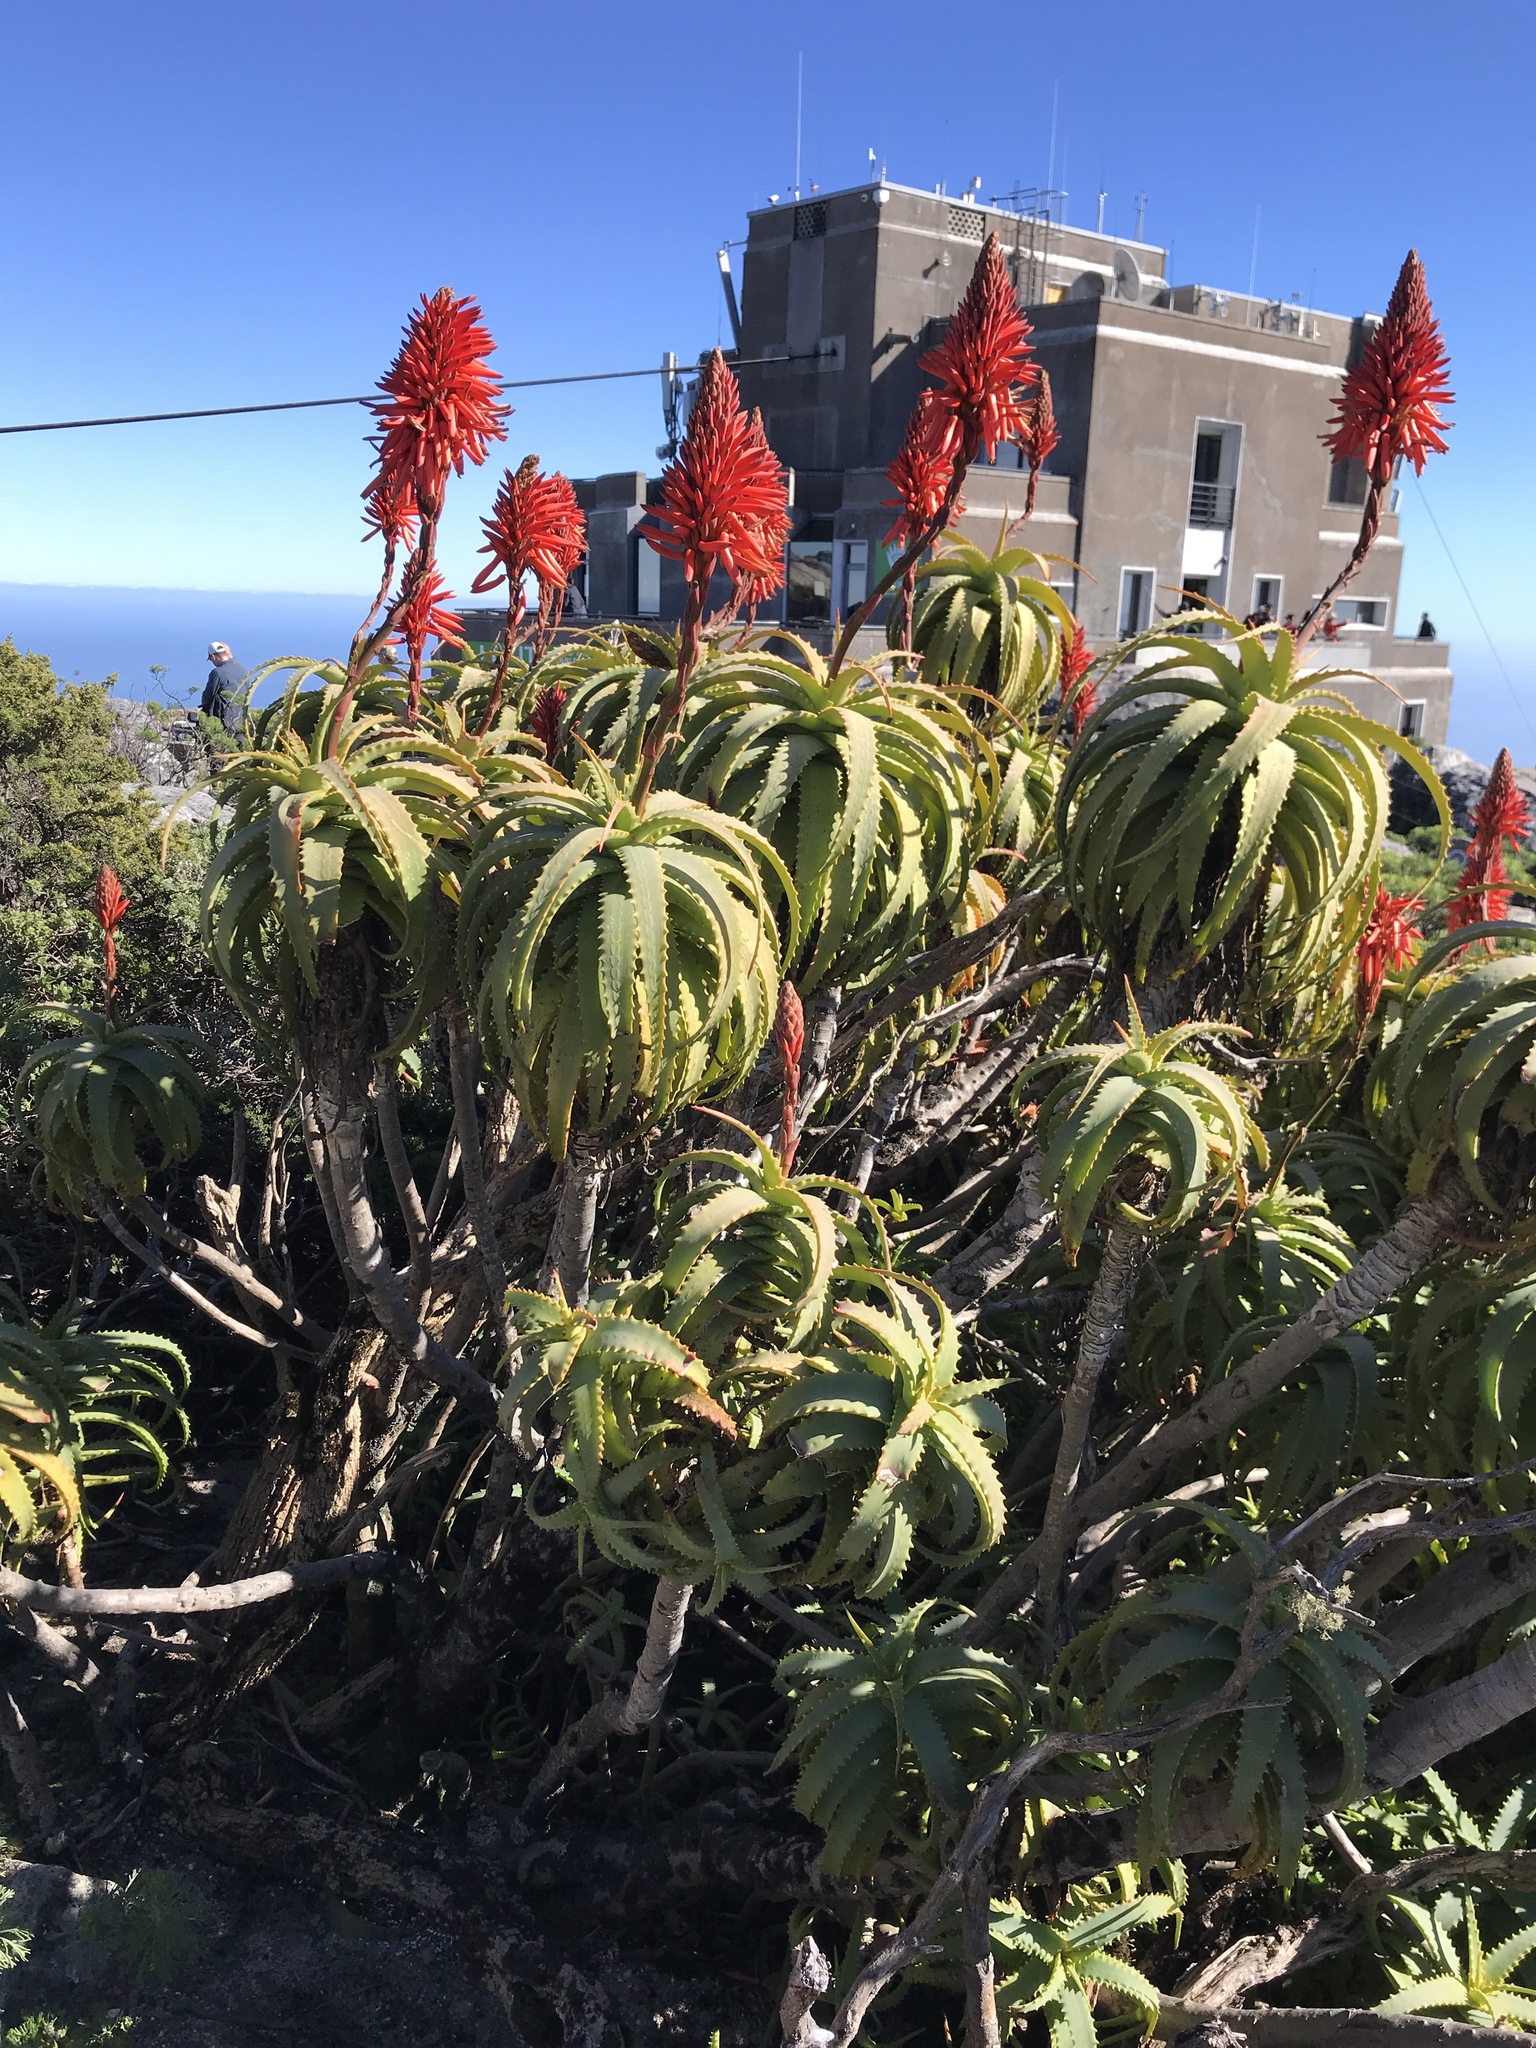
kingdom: Plantae
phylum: Tracheophyta
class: Liliopsida
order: Asparagales
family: Asphodelaceae
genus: Aloe
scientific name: Aloe arborescens
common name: Candelabra aloe
